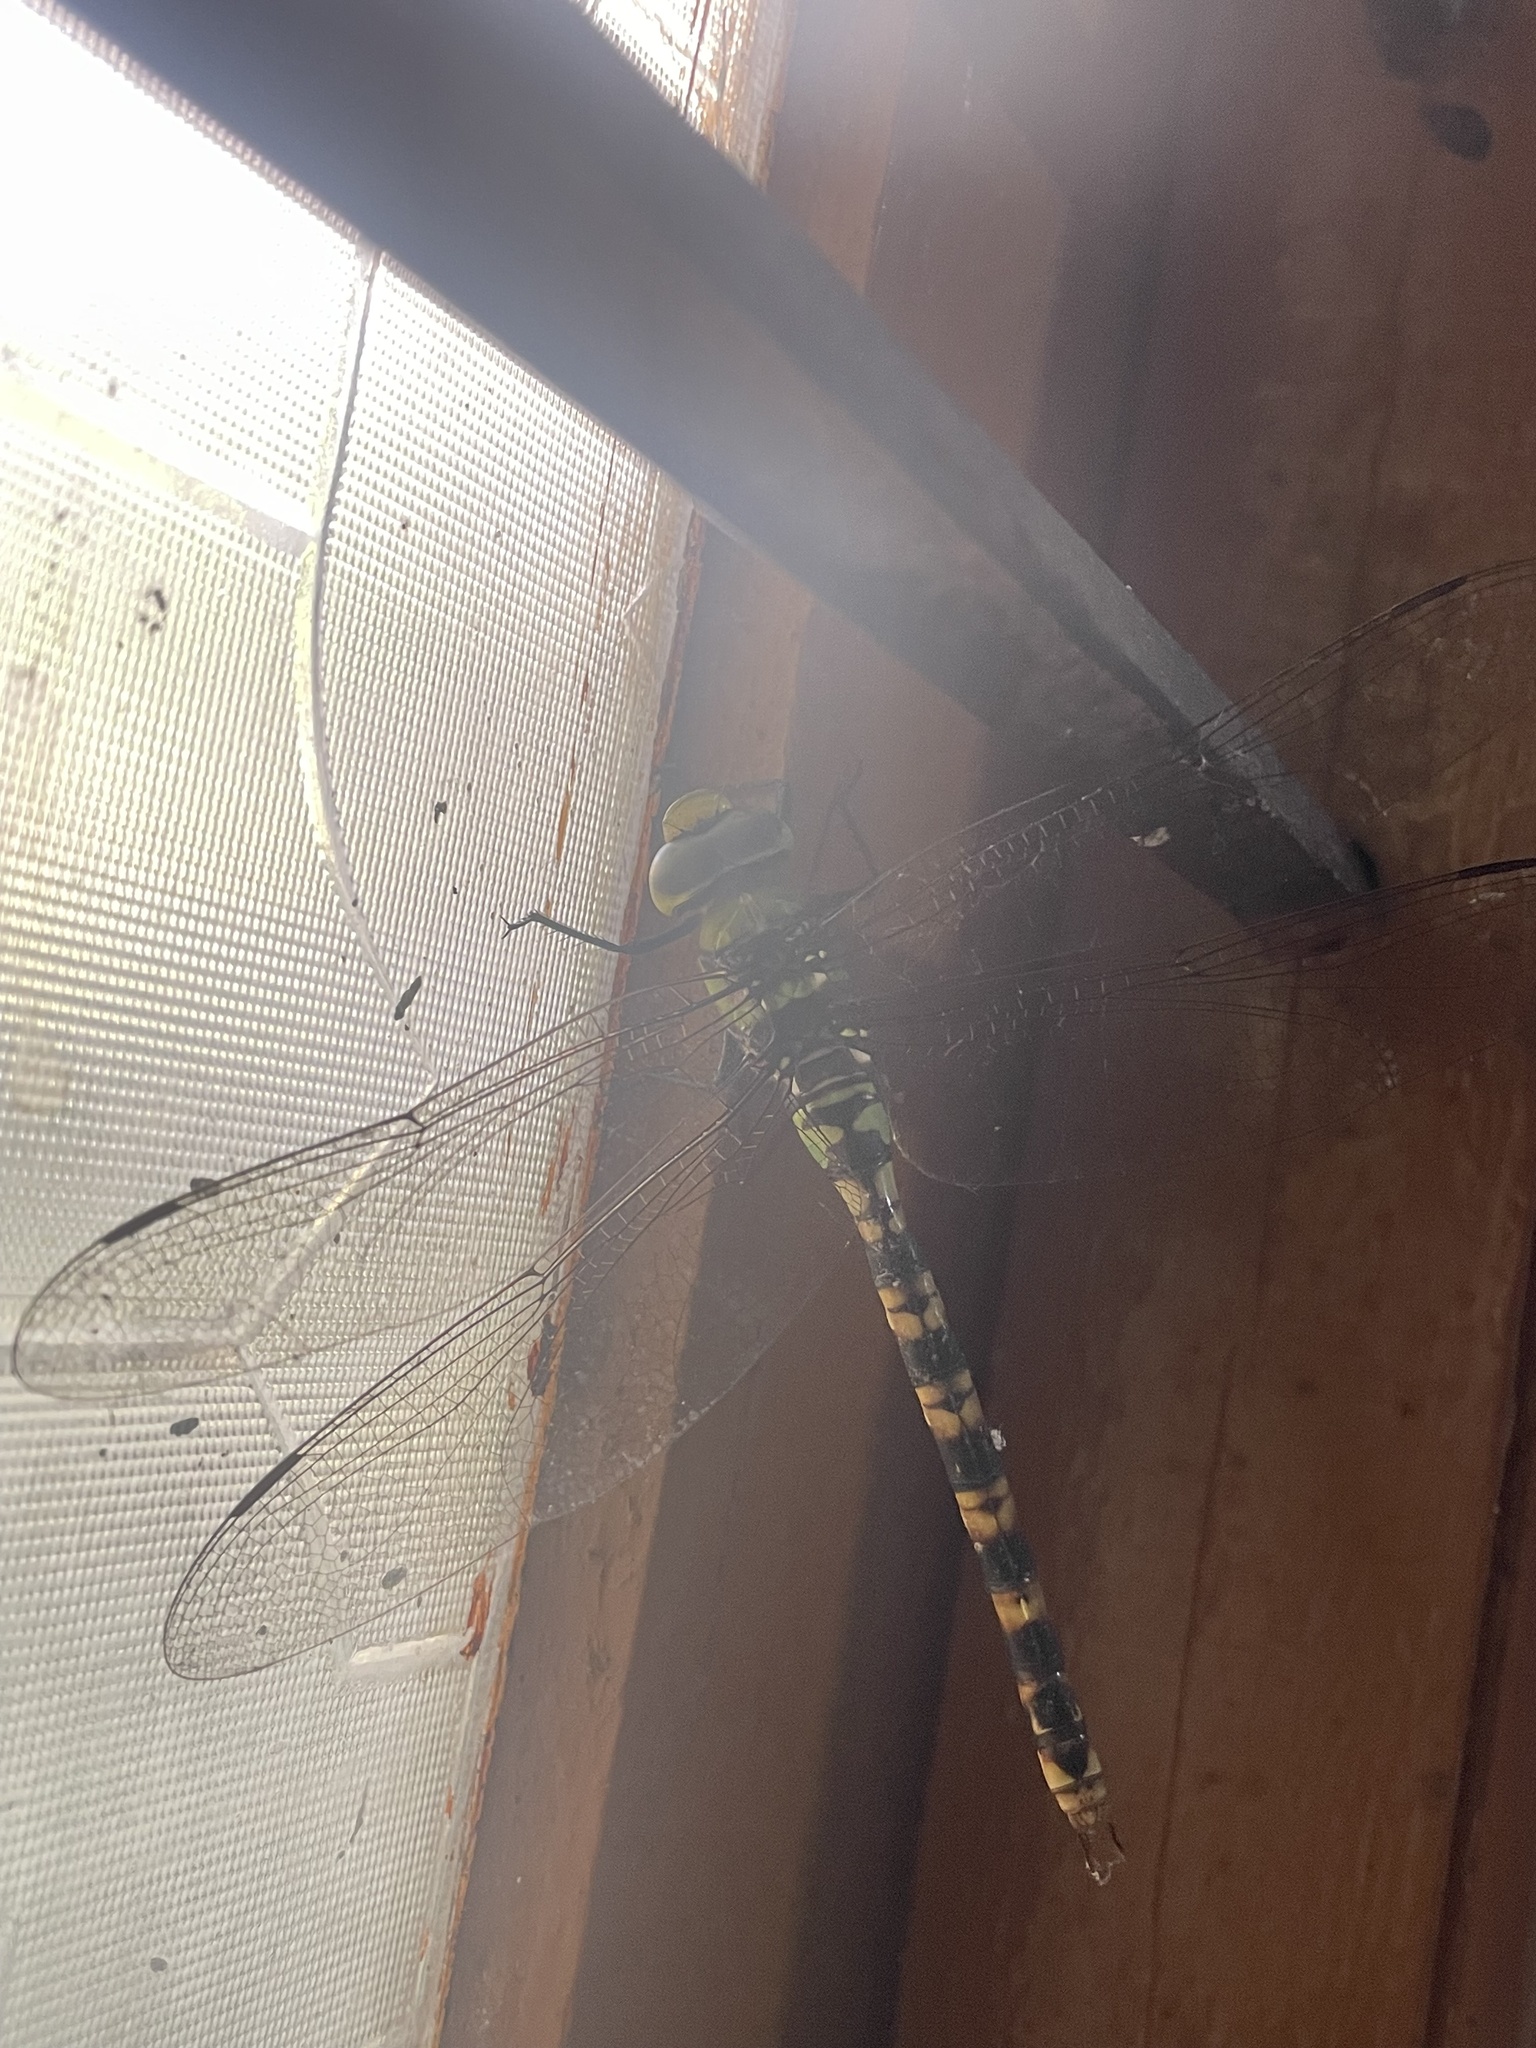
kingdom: Animalia
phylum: Arthropoda
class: Insecta
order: Odonata
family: Aeshnidae
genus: Anax
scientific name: Anax immaculifrons
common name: Magnificent emperor
